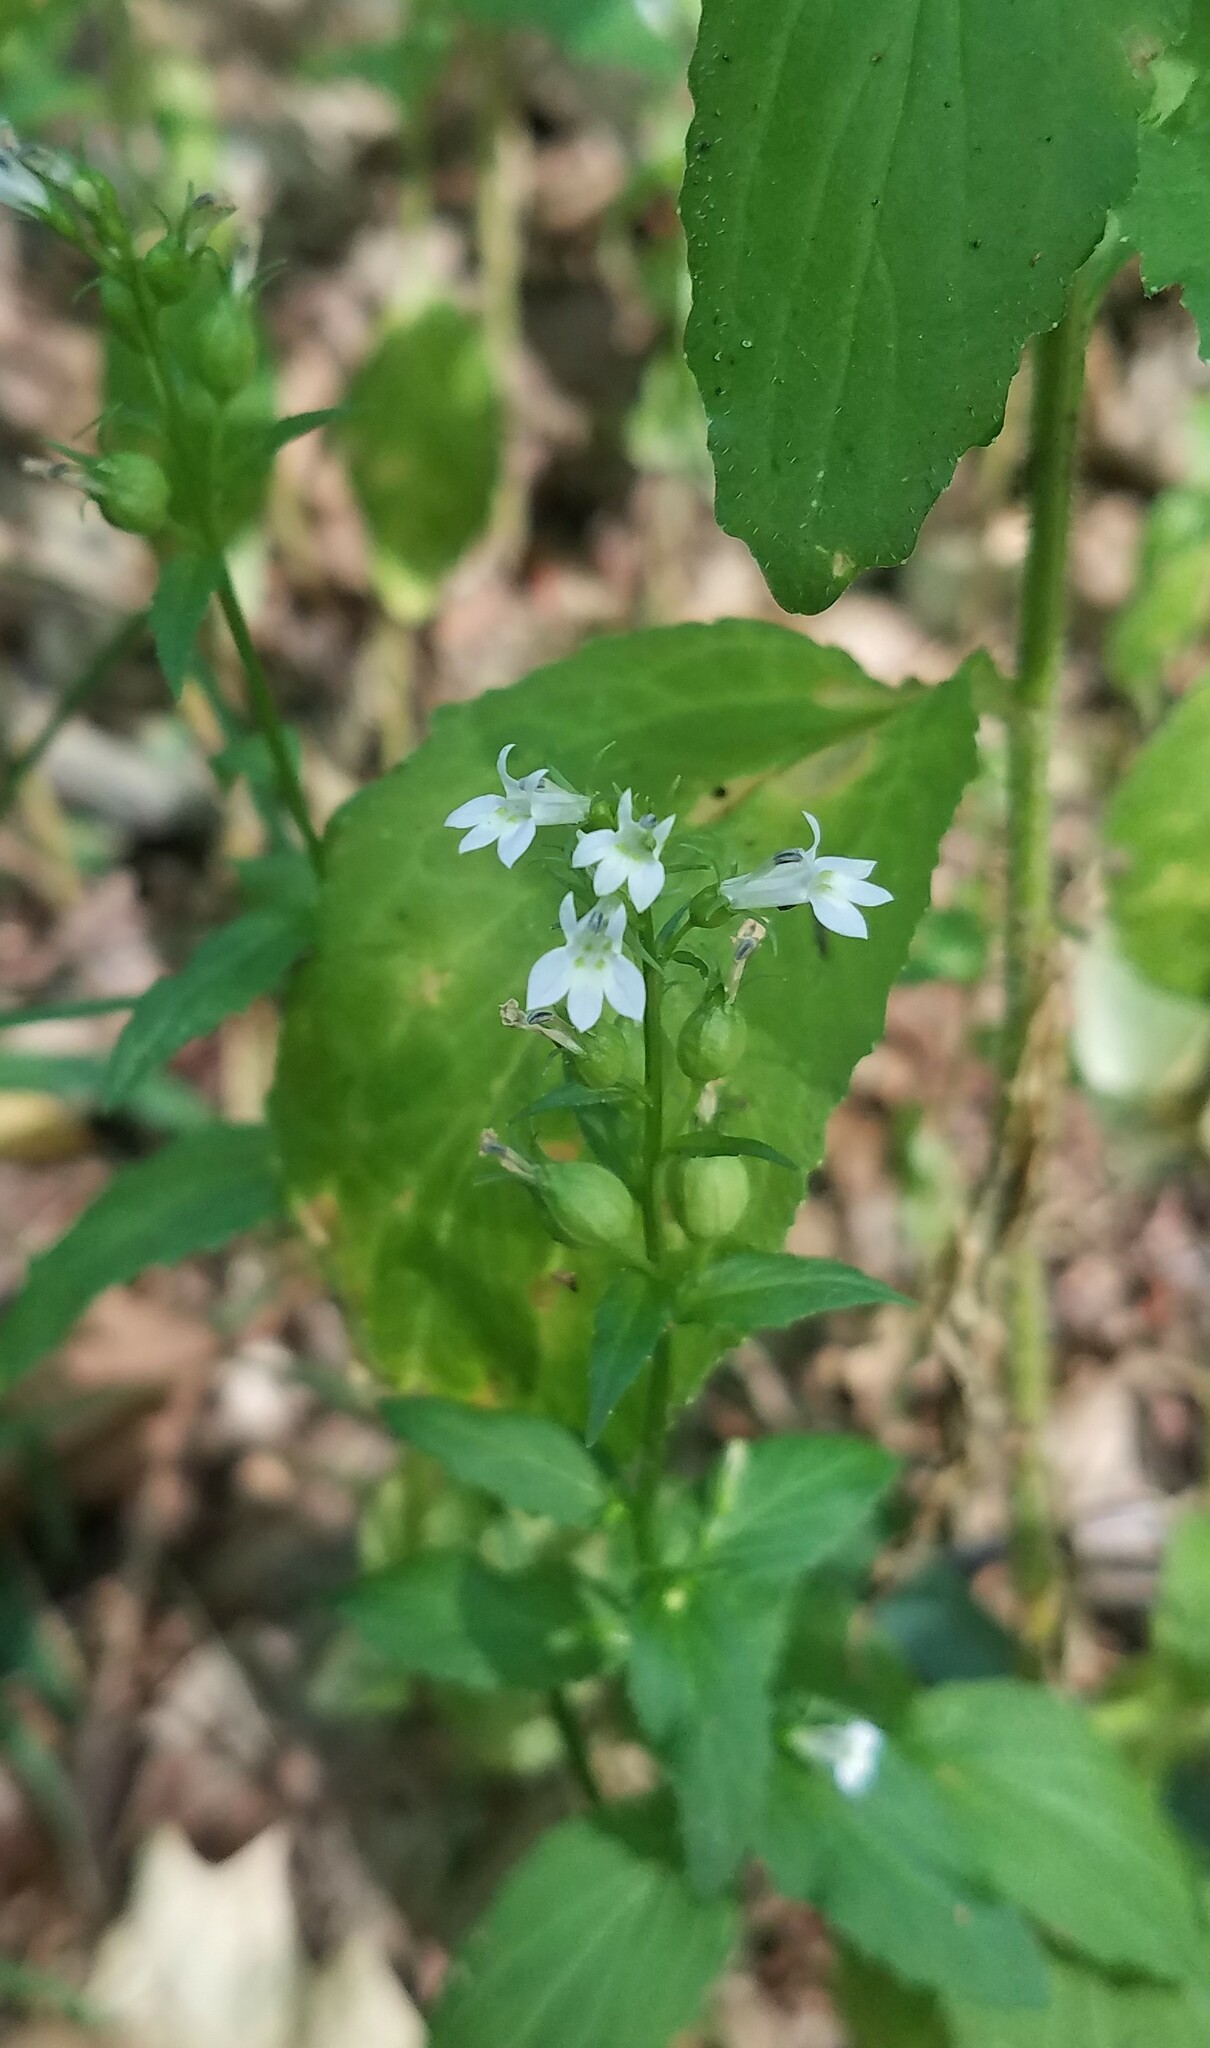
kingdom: Plantae
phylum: Tracheophyta
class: Magnoliopsida
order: Asterales
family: Campanulaceae
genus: Lobelia
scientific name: Lobelia inflata
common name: Indian tobacco
